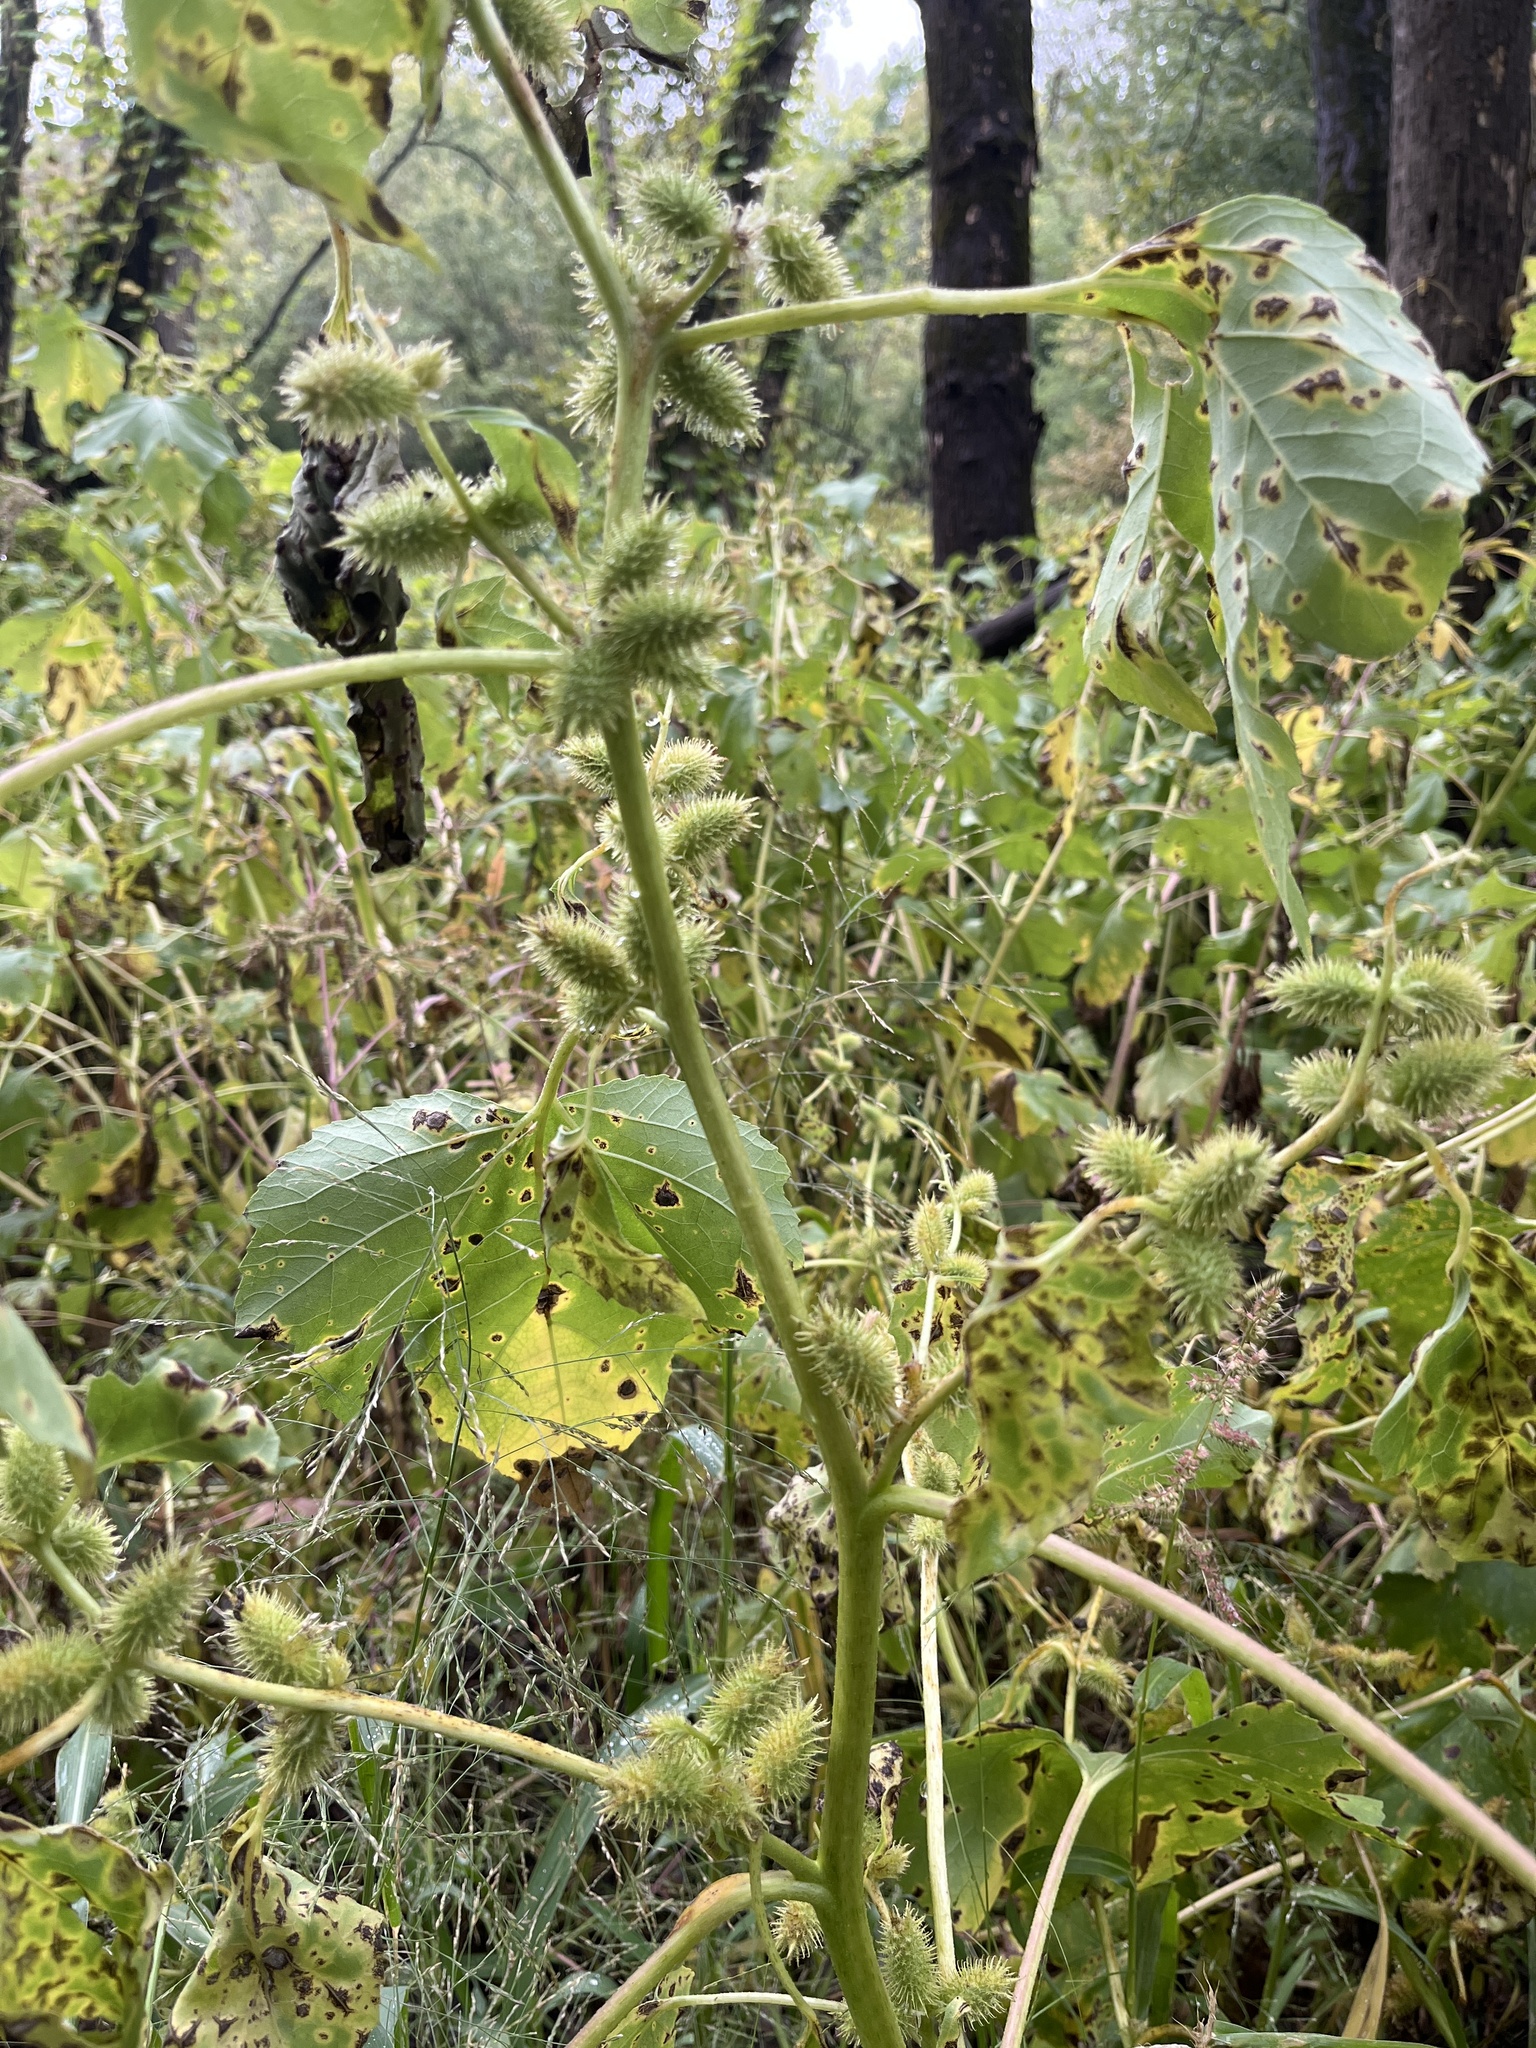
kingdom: Plantae
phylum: Tracheophyta
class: Magnoliopsida
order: Asterales
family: Asteraceae
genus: Xanthium
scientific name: Xanthium strumarium
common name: Rough cocklebur
